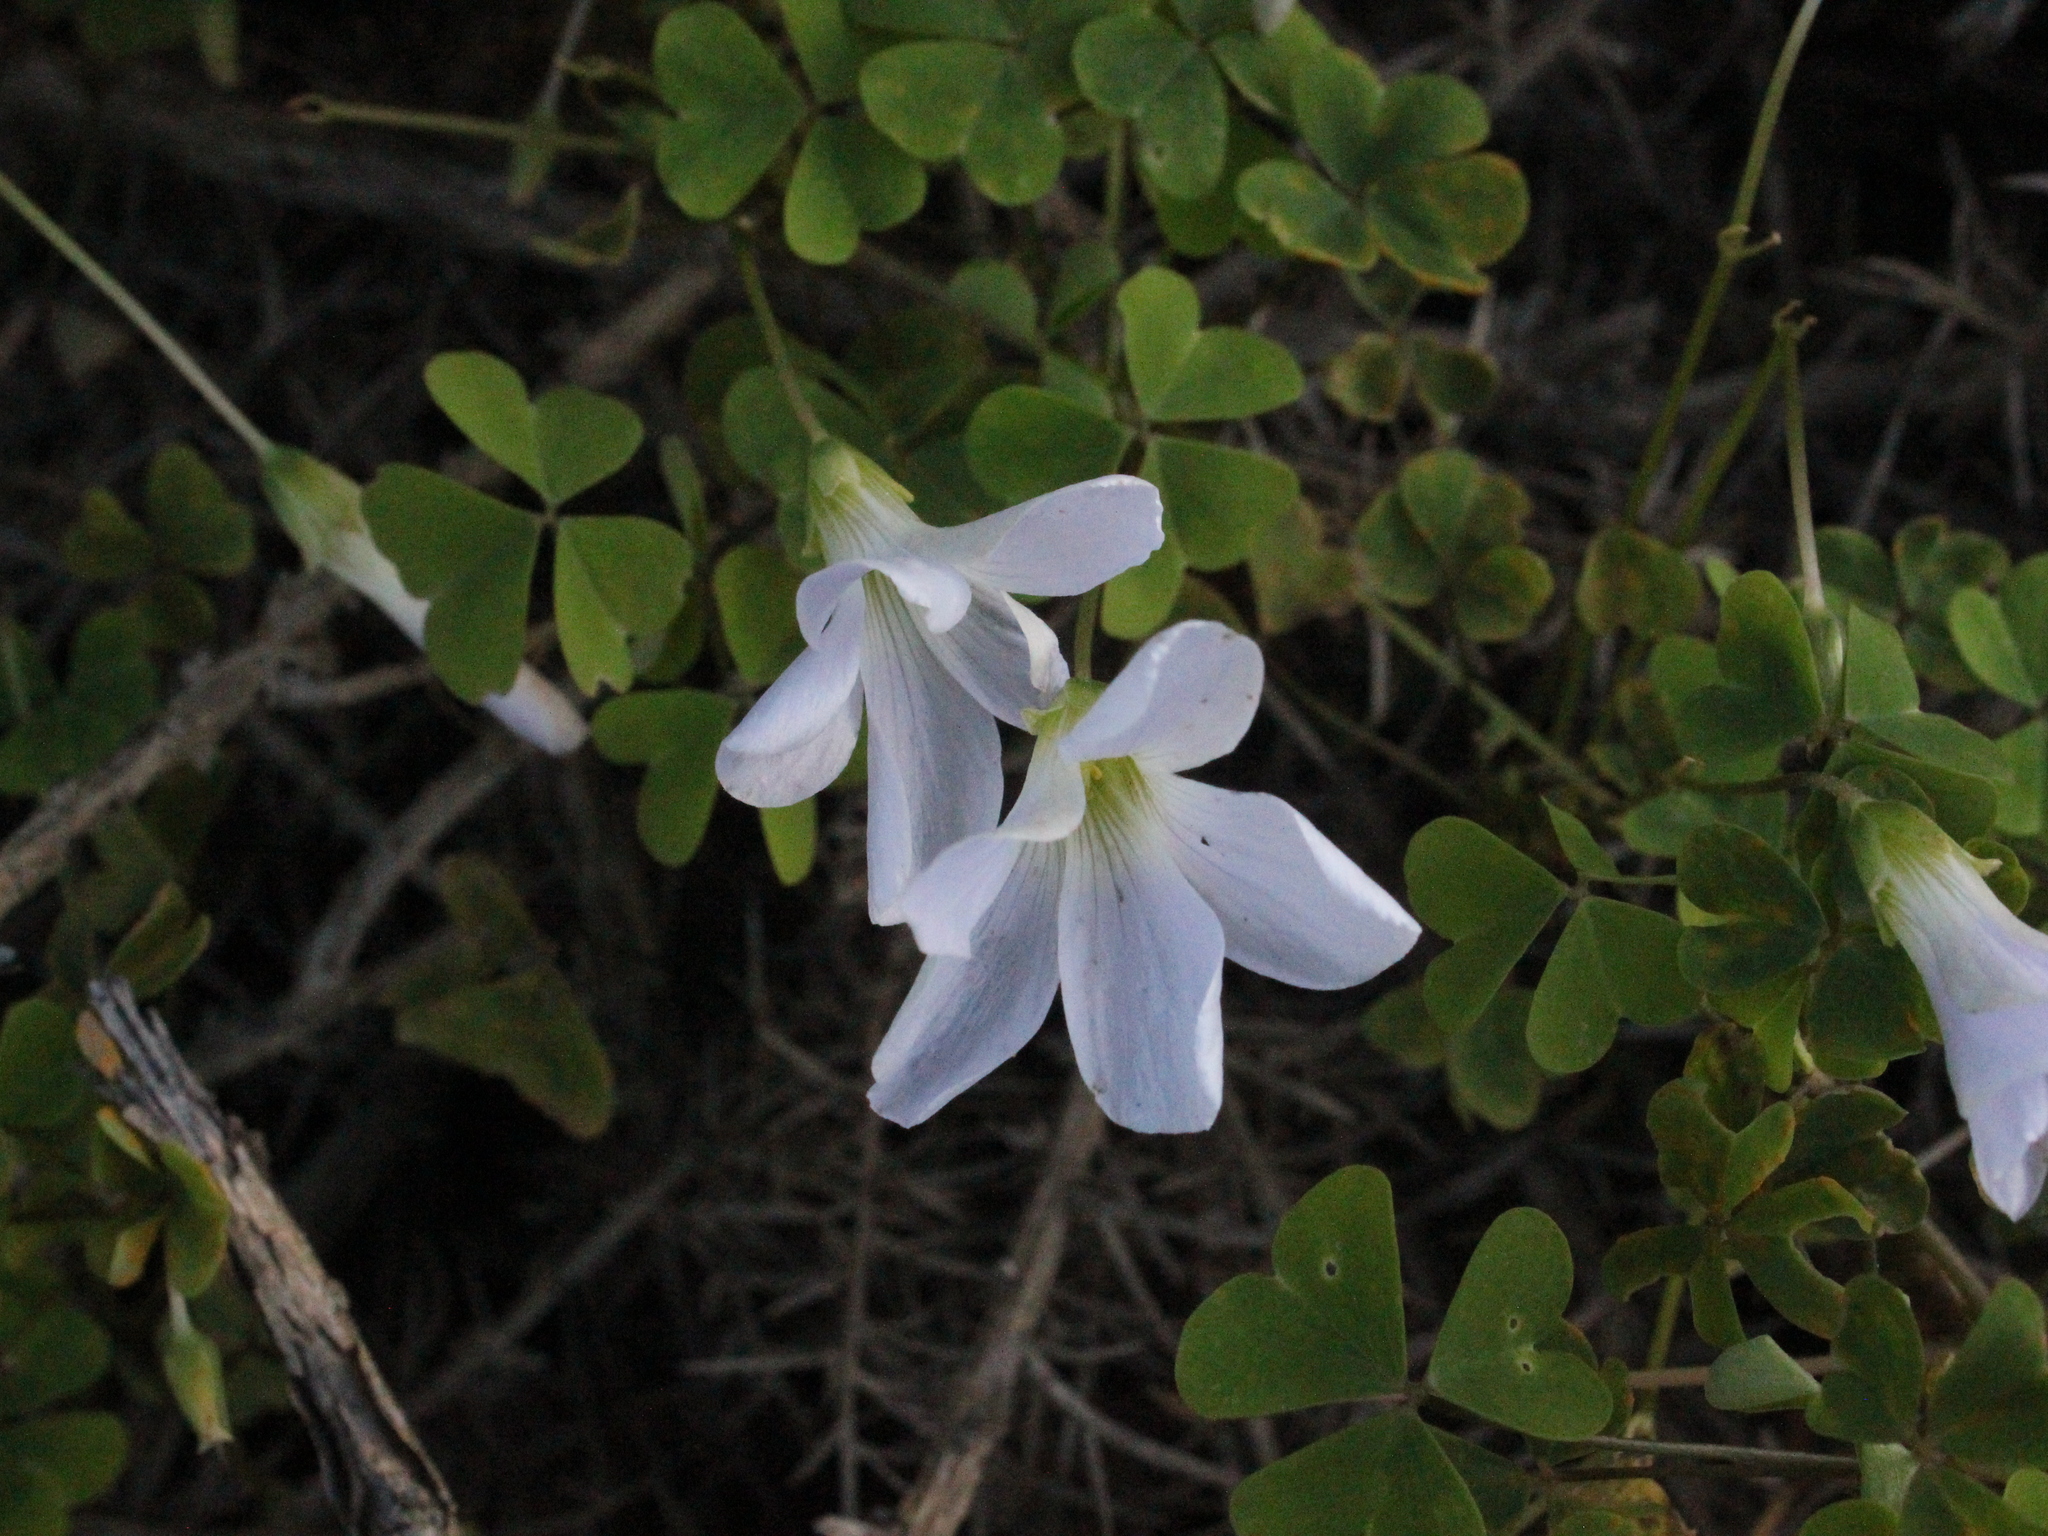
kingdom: Plantae
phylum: Tracheophyta
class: Magnoliopsida
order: Oxalidales
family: Oxalidaceae
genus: Oxalis
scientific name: Oxalis incarnata
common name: Pale pink-sorrel
